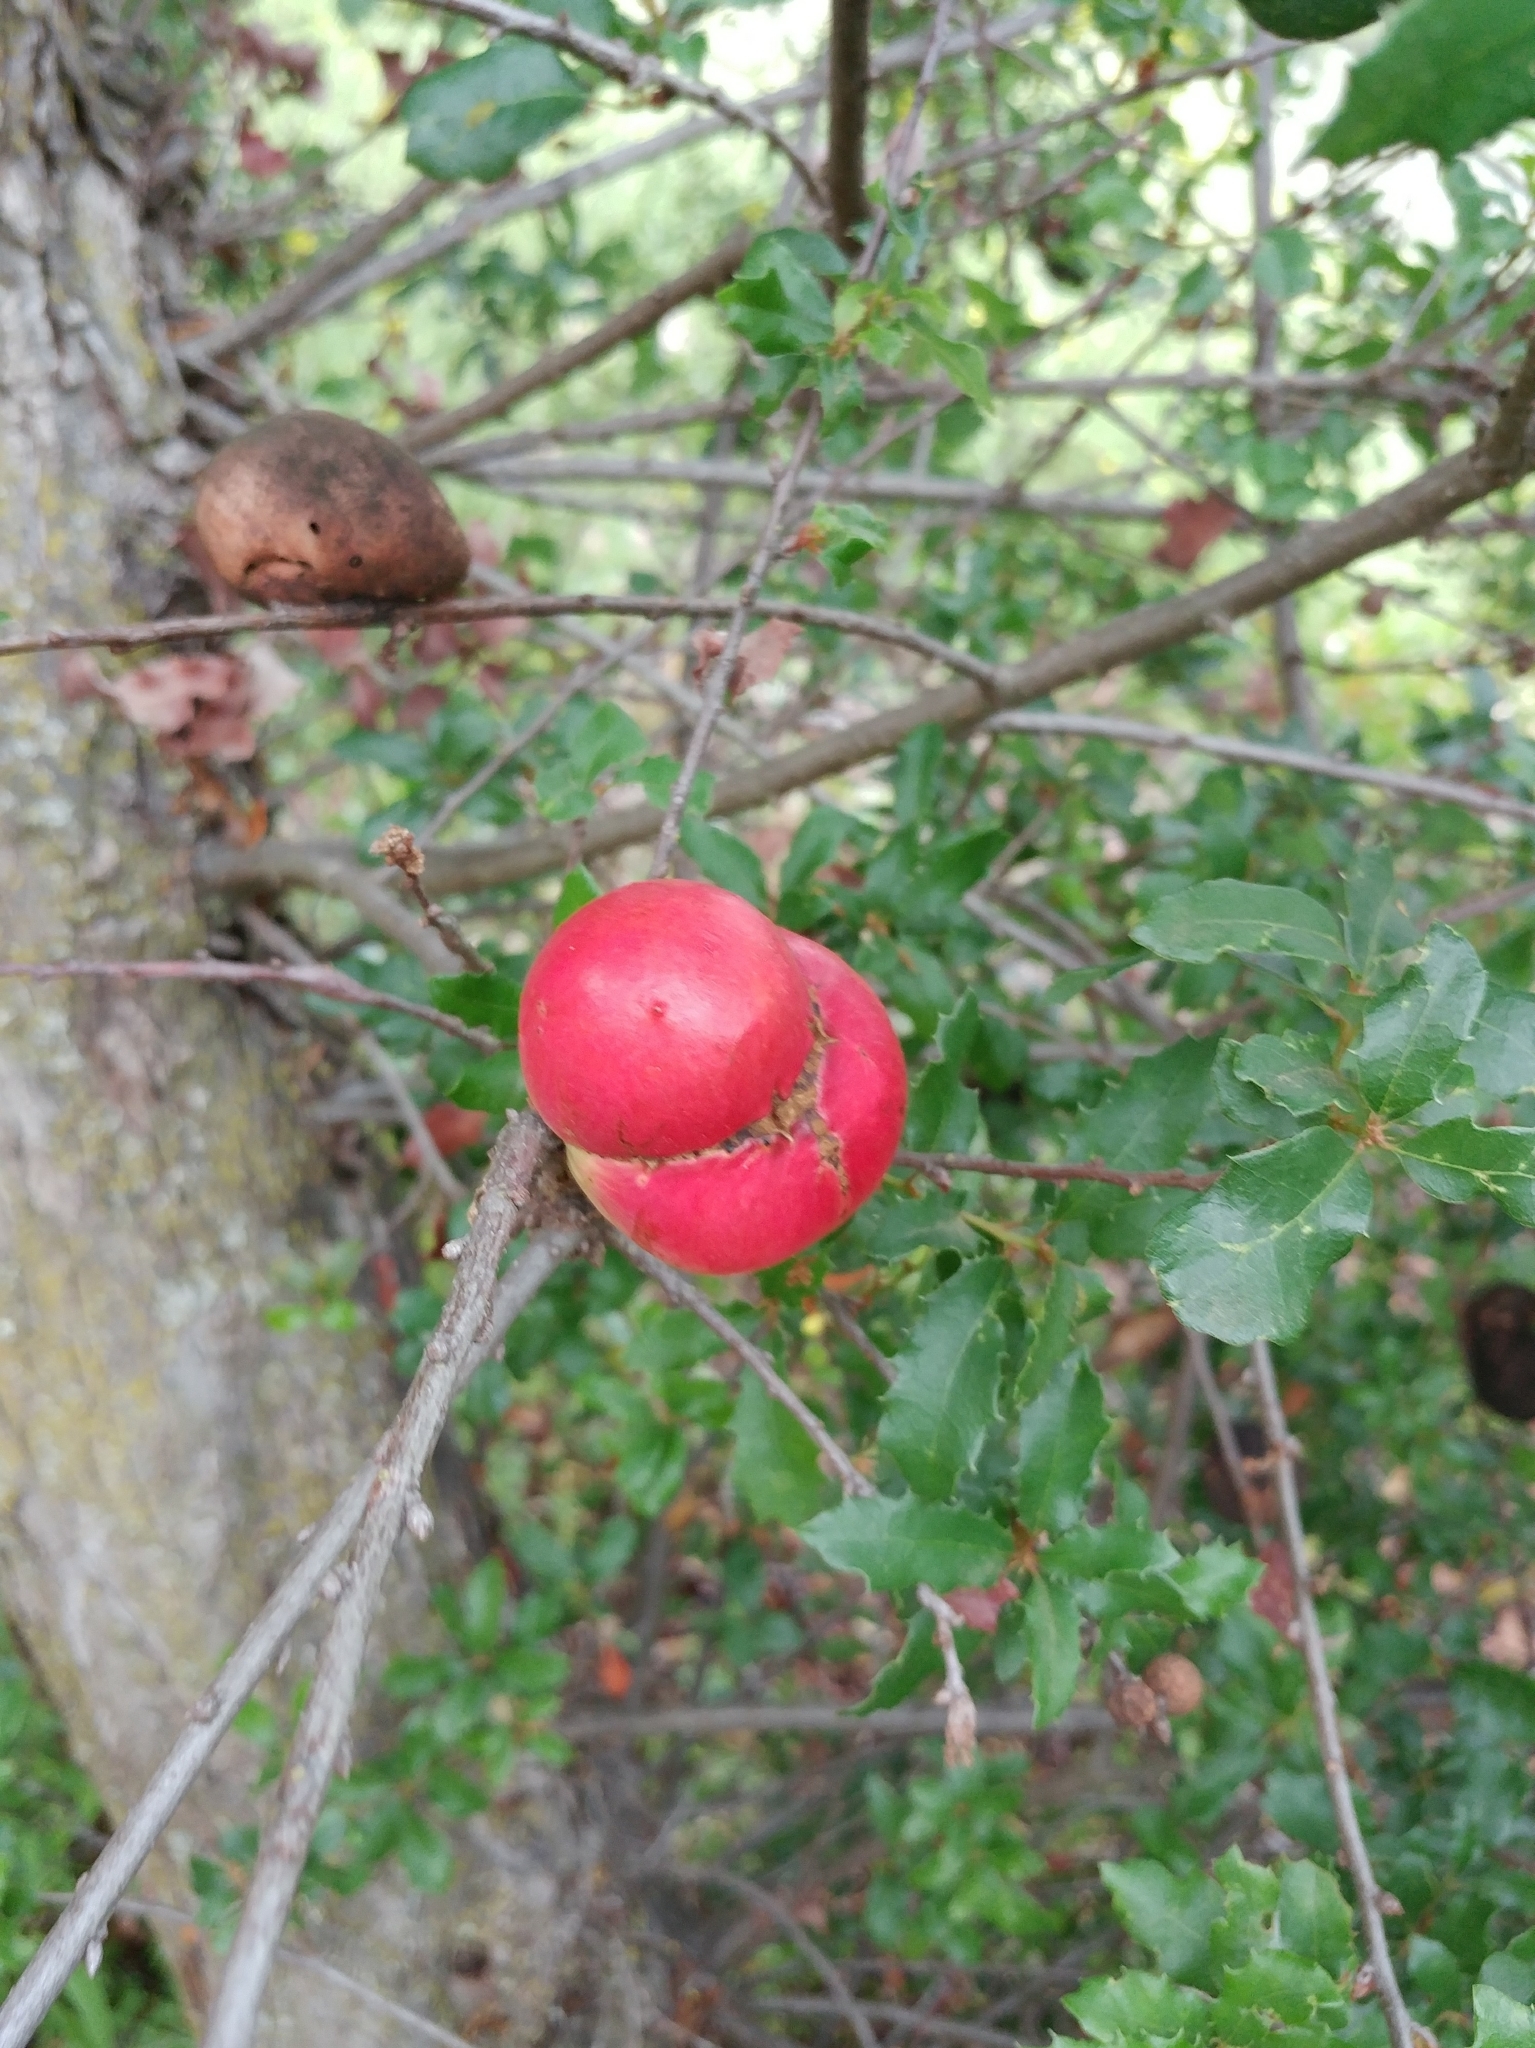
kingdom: Animalia
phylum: Arthropoda
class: Insecta
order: Hymenoptera
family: Cynipidae
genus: Andricus
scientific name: Andricus quercuscalifornicus
